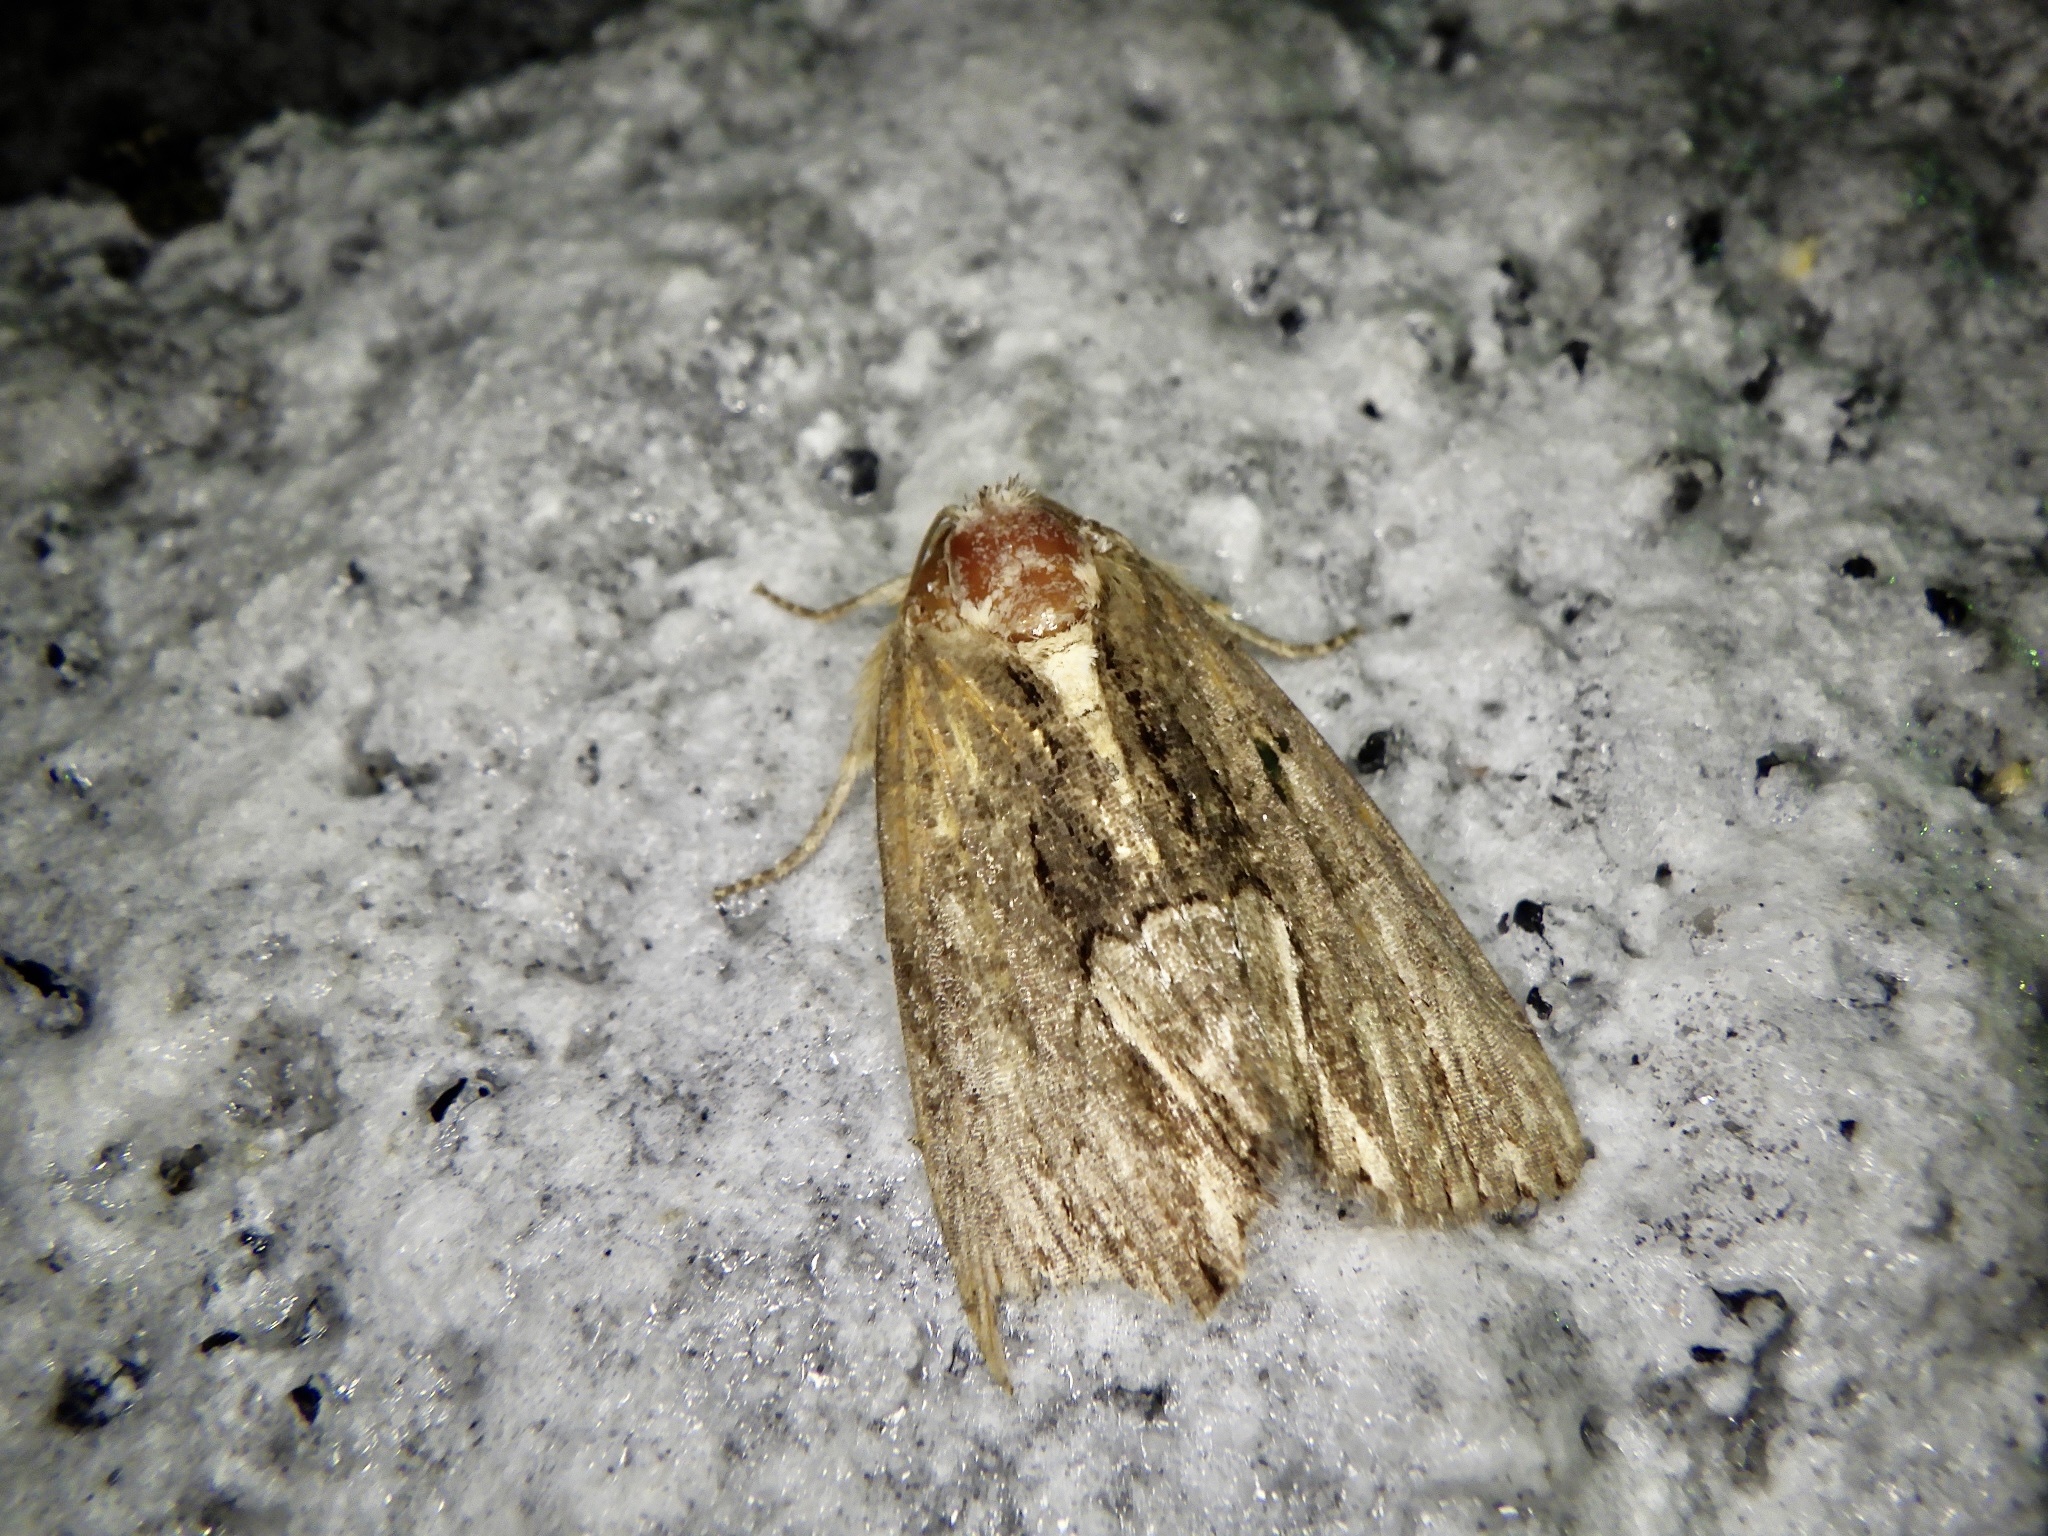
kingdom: Animalia
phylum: Arthropoda
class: Insecta
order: Lepidoptera
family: Noctuidae
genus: Dipterygina
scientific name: Dipterygina cupreotincta
